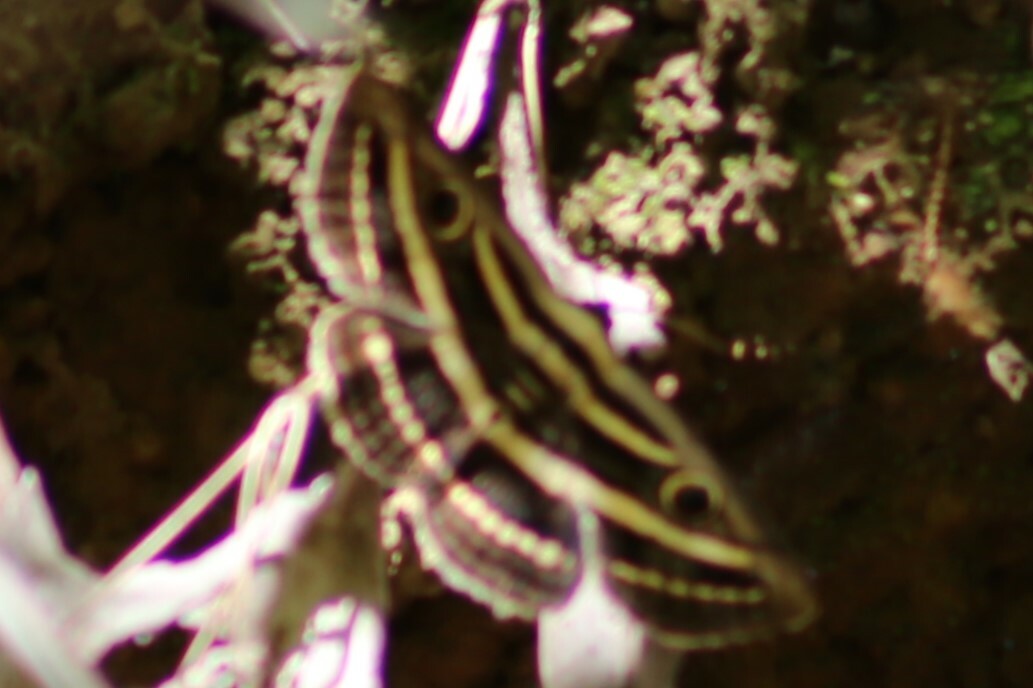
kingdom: Animalia
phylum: Arthropoda
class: Insecta
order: Lepidoptera
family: Erebidae
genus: Donuca
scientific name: Donuca orbigera
